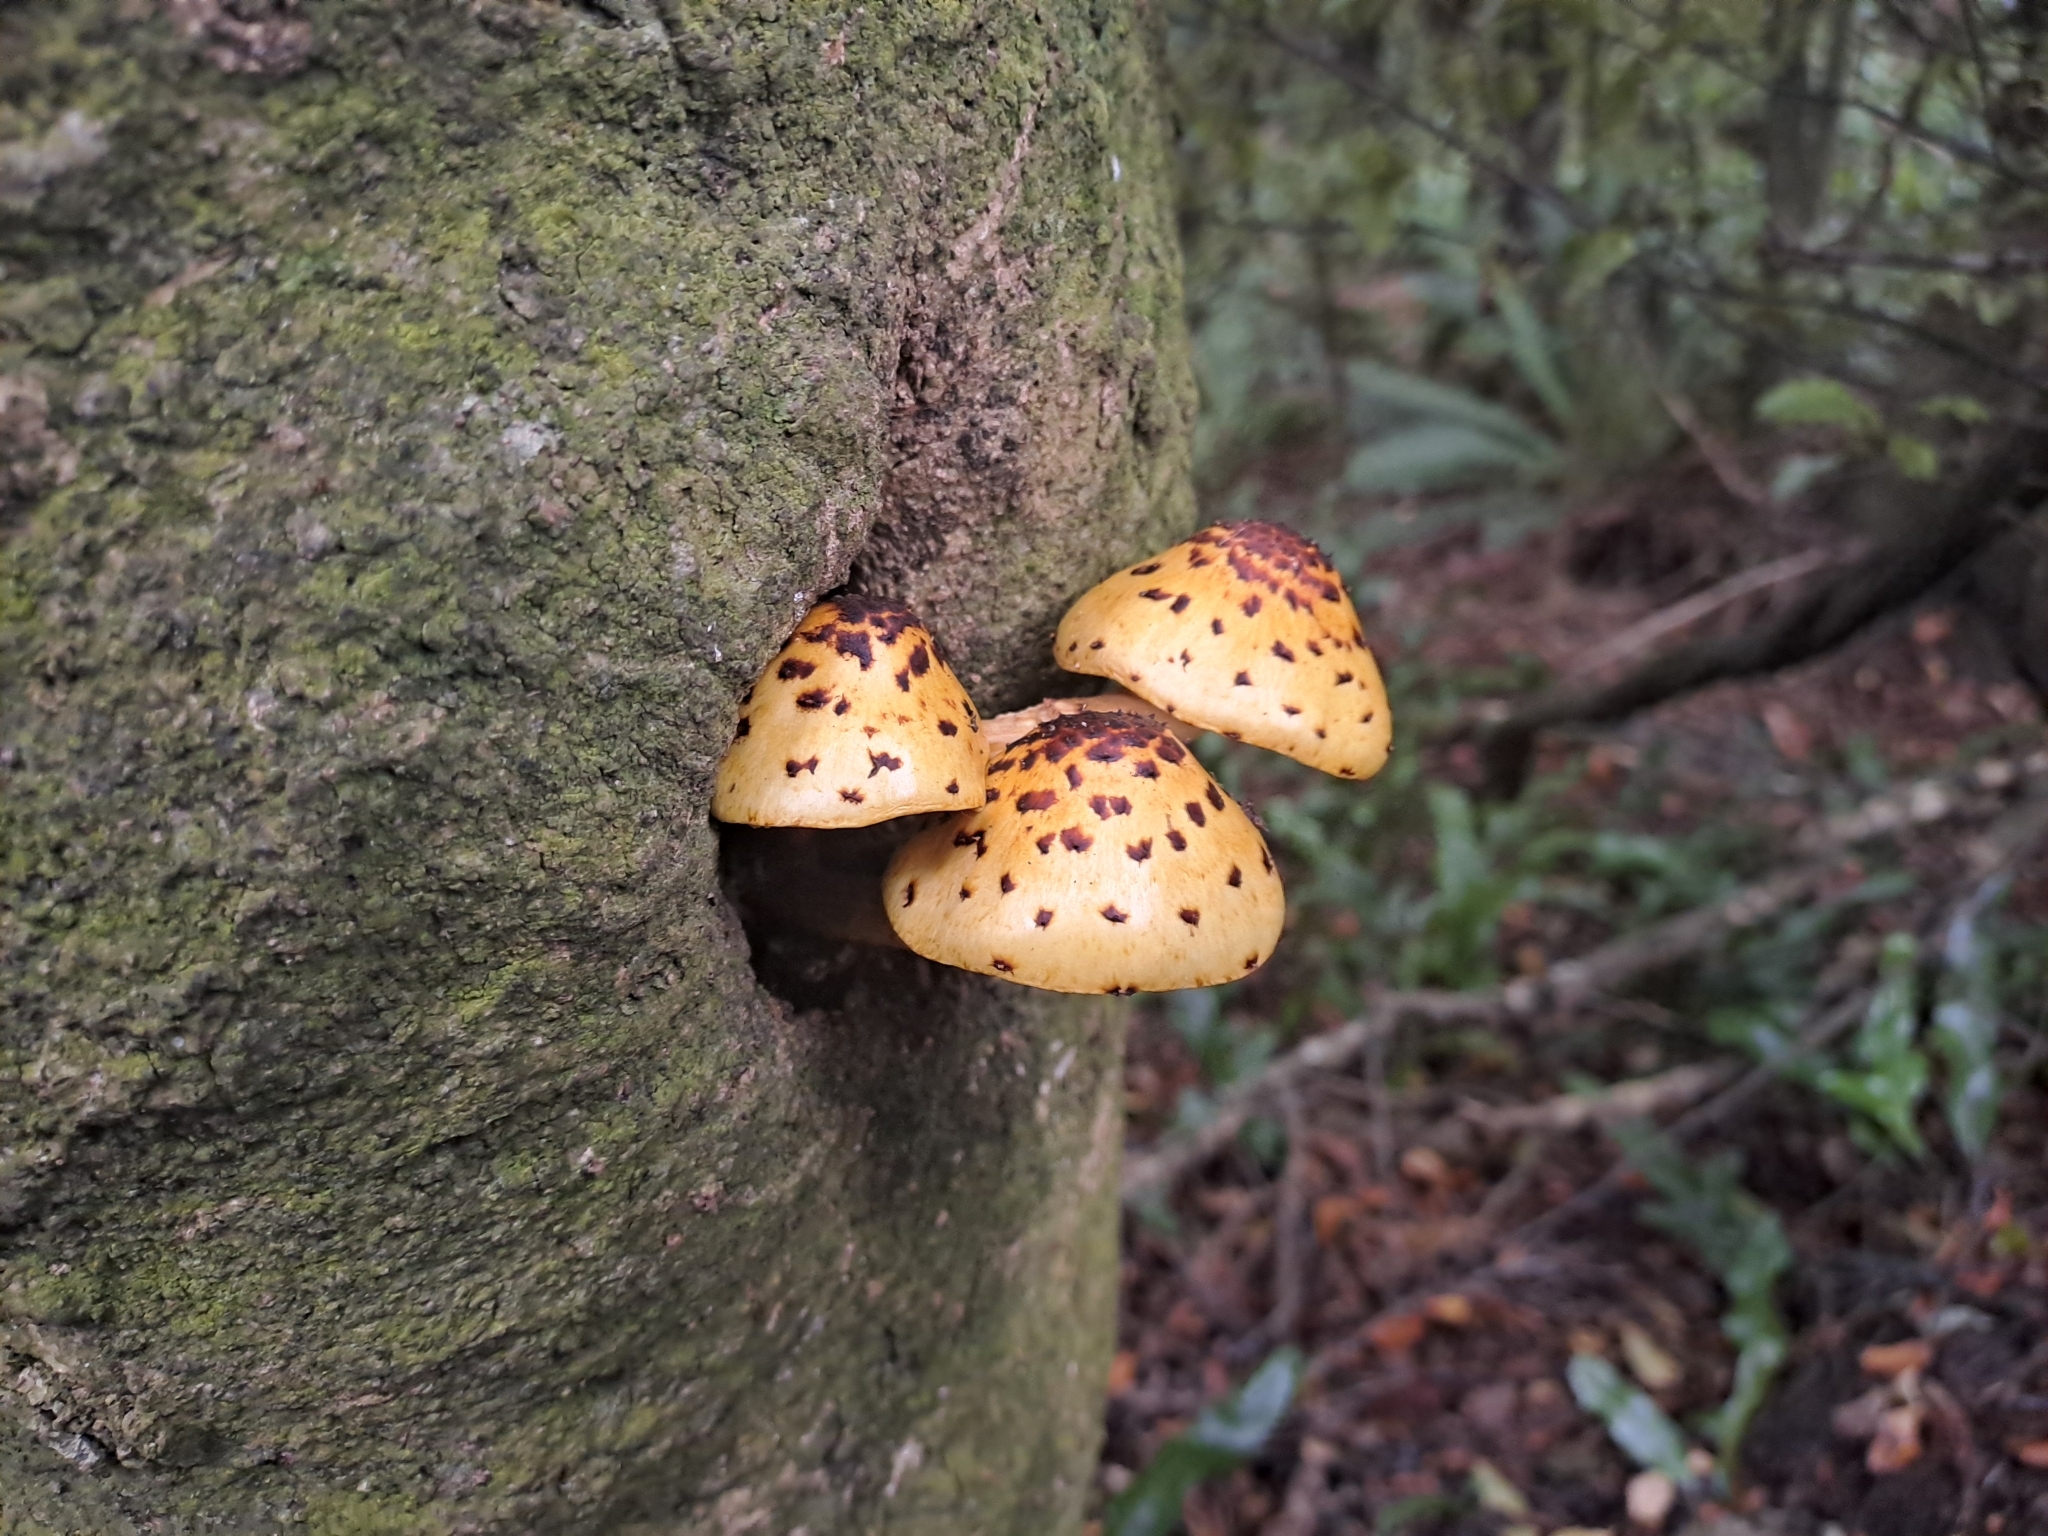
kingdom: Fungi
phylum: Basidiomycota
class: Agaricomycetes
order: Agaricales
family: Strophariaceae
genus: Pholiota
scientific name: Pholiota glutinosa
